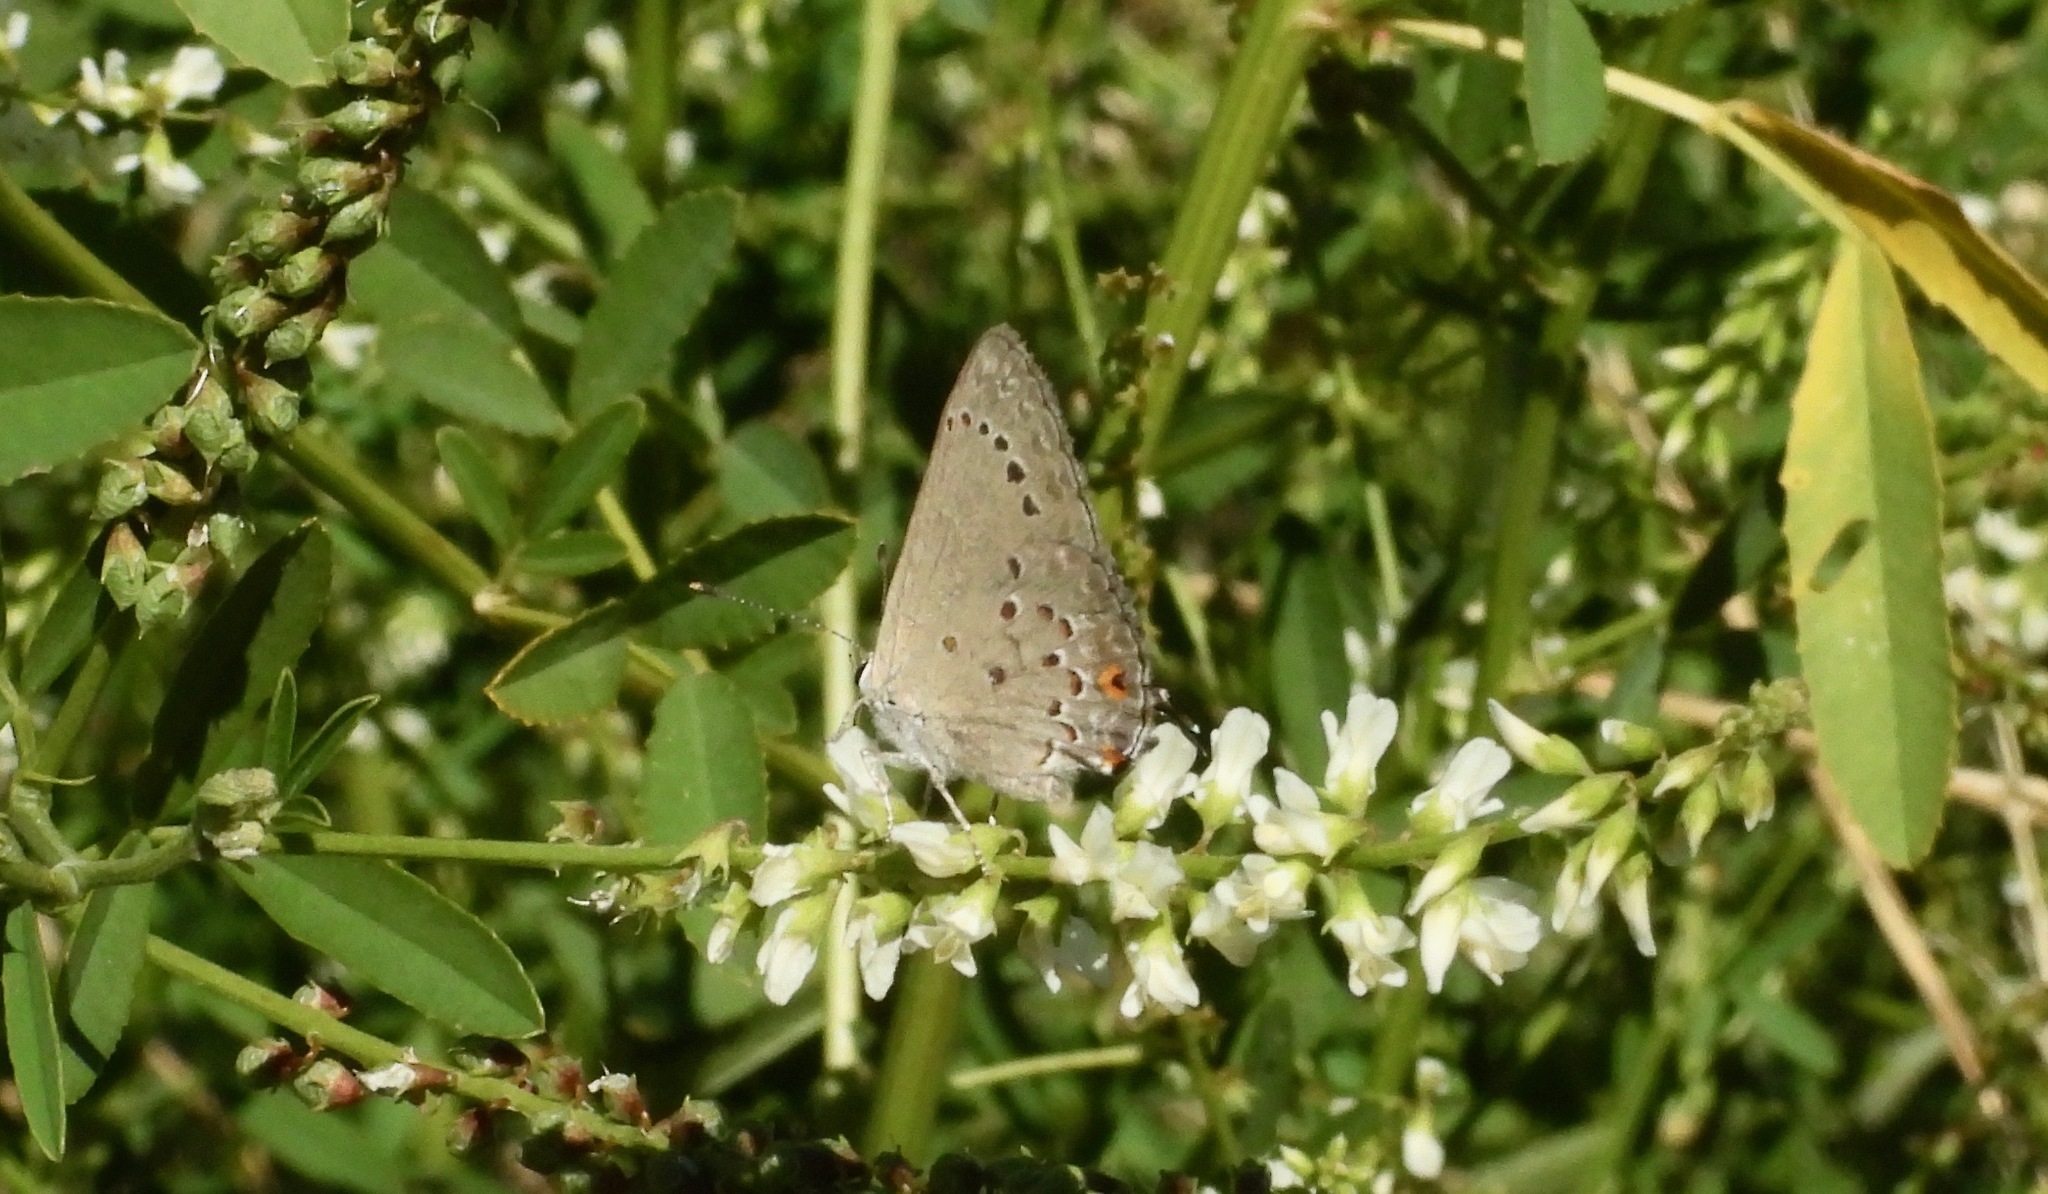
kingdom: Animalia
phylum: Arthropoda
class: Insecta
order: Lepidoptera
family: Lycaenidae
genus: Strymon
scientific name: Strymon eurytulus
